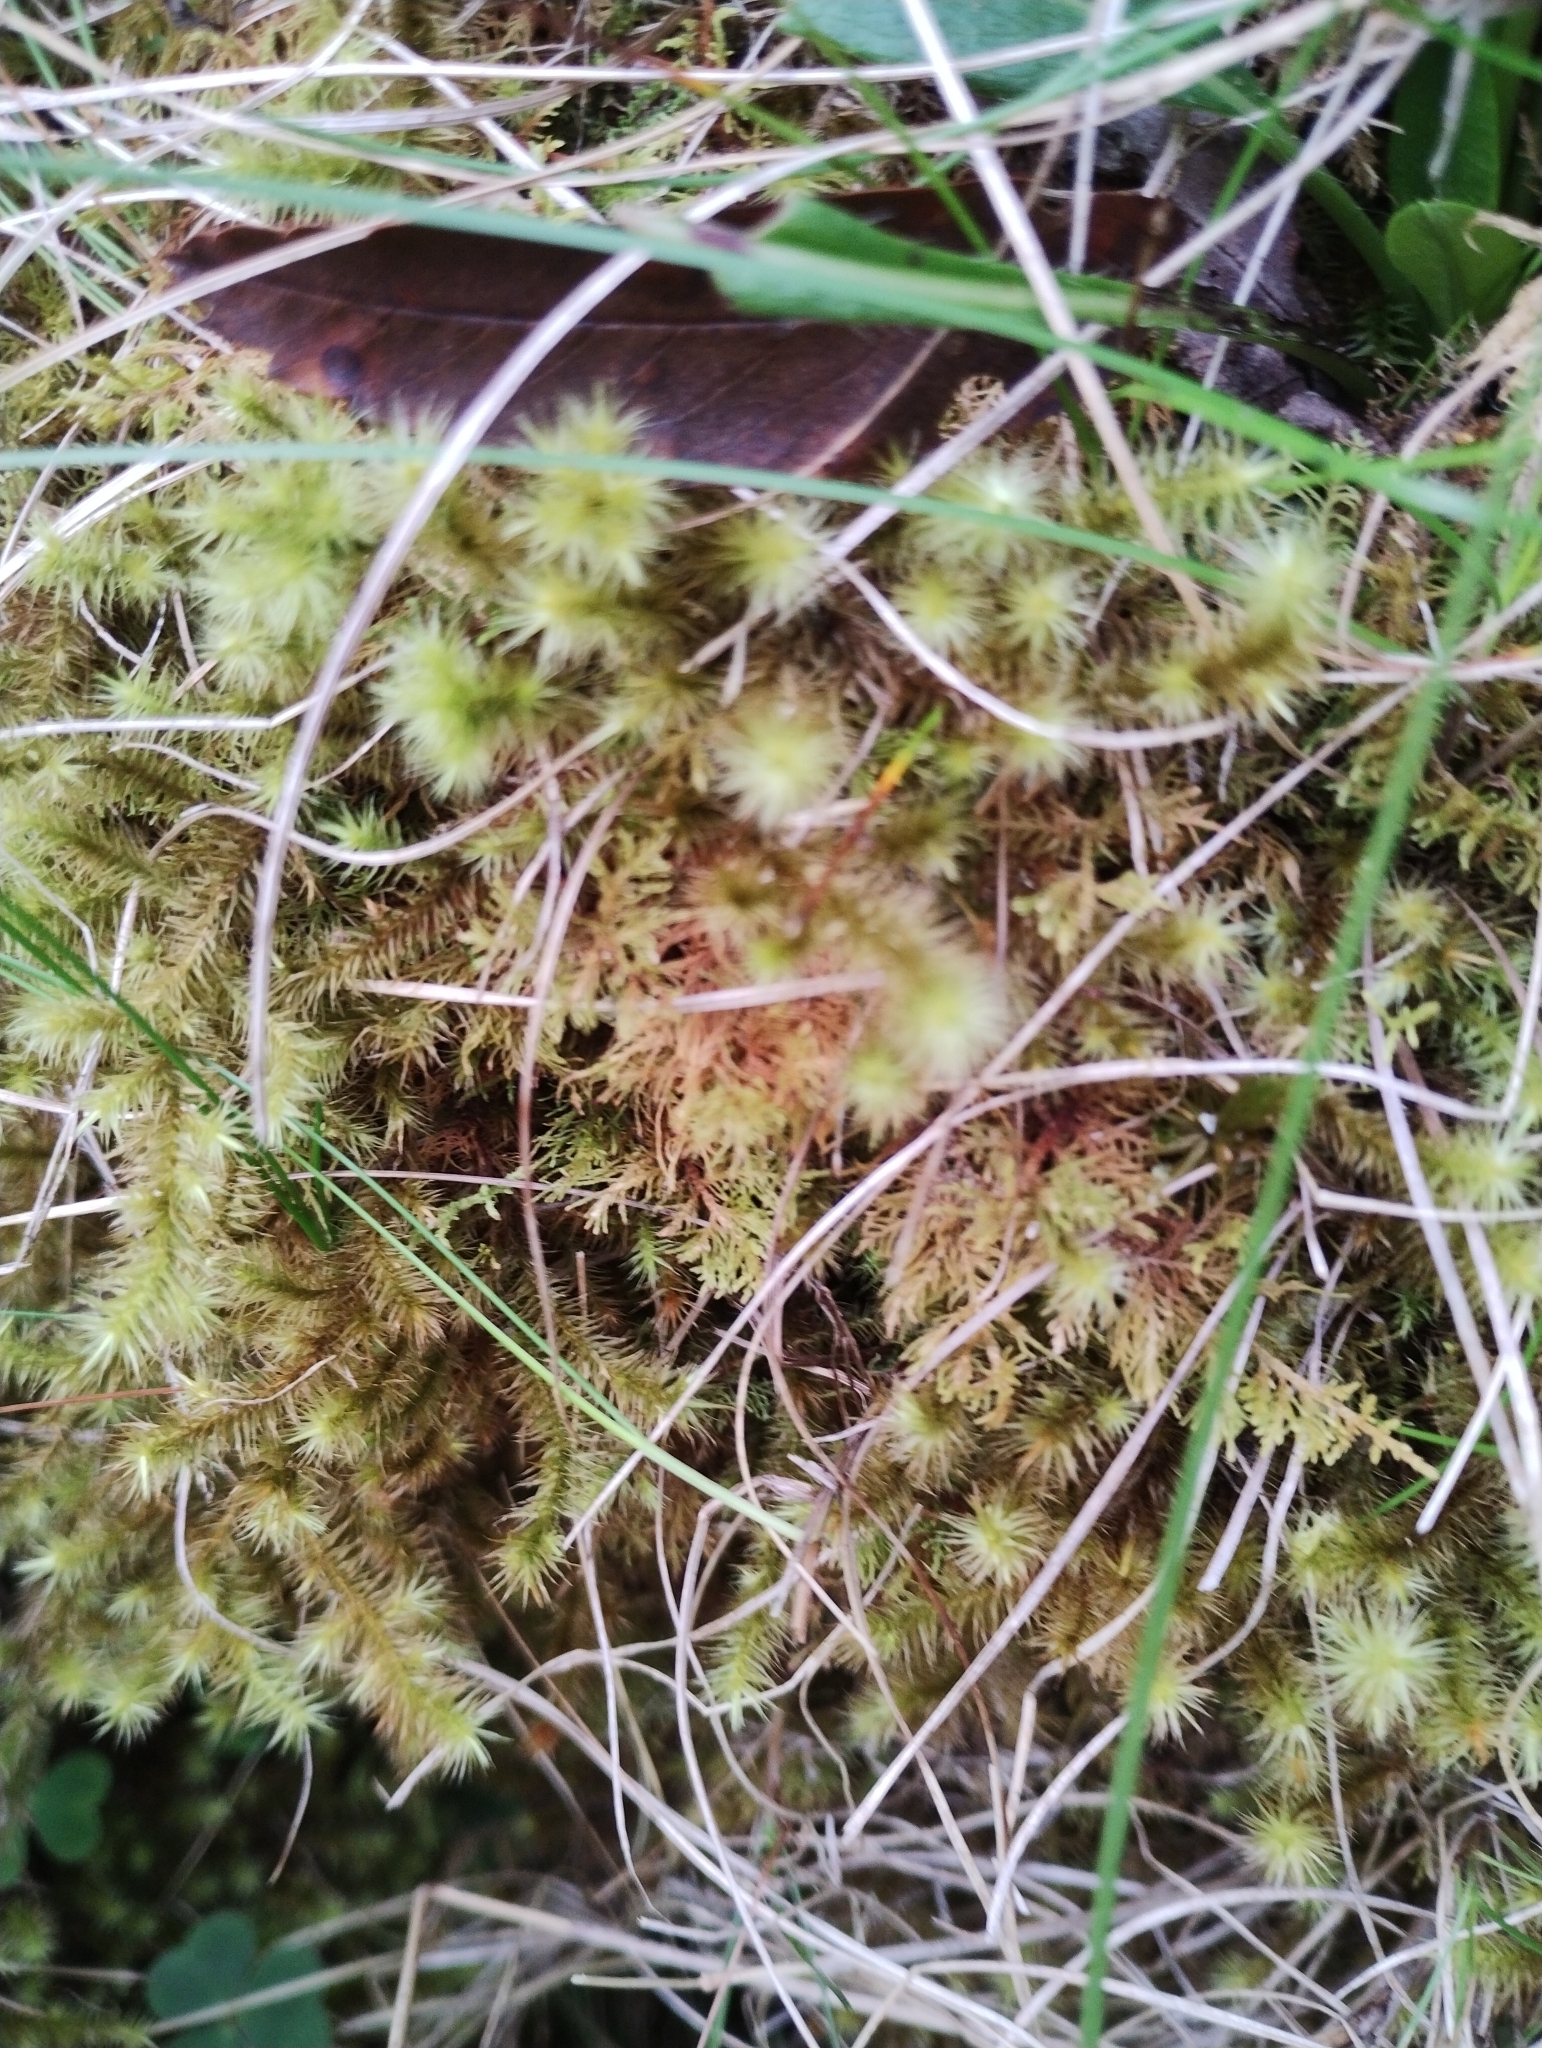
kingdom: Plantae
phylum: Bryophyta
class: Bryopsida
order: Bartramiales
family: Bartramiaceae
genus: Breutelia
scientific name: Breutelia chrysocoma
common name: Bottle-brush moss
